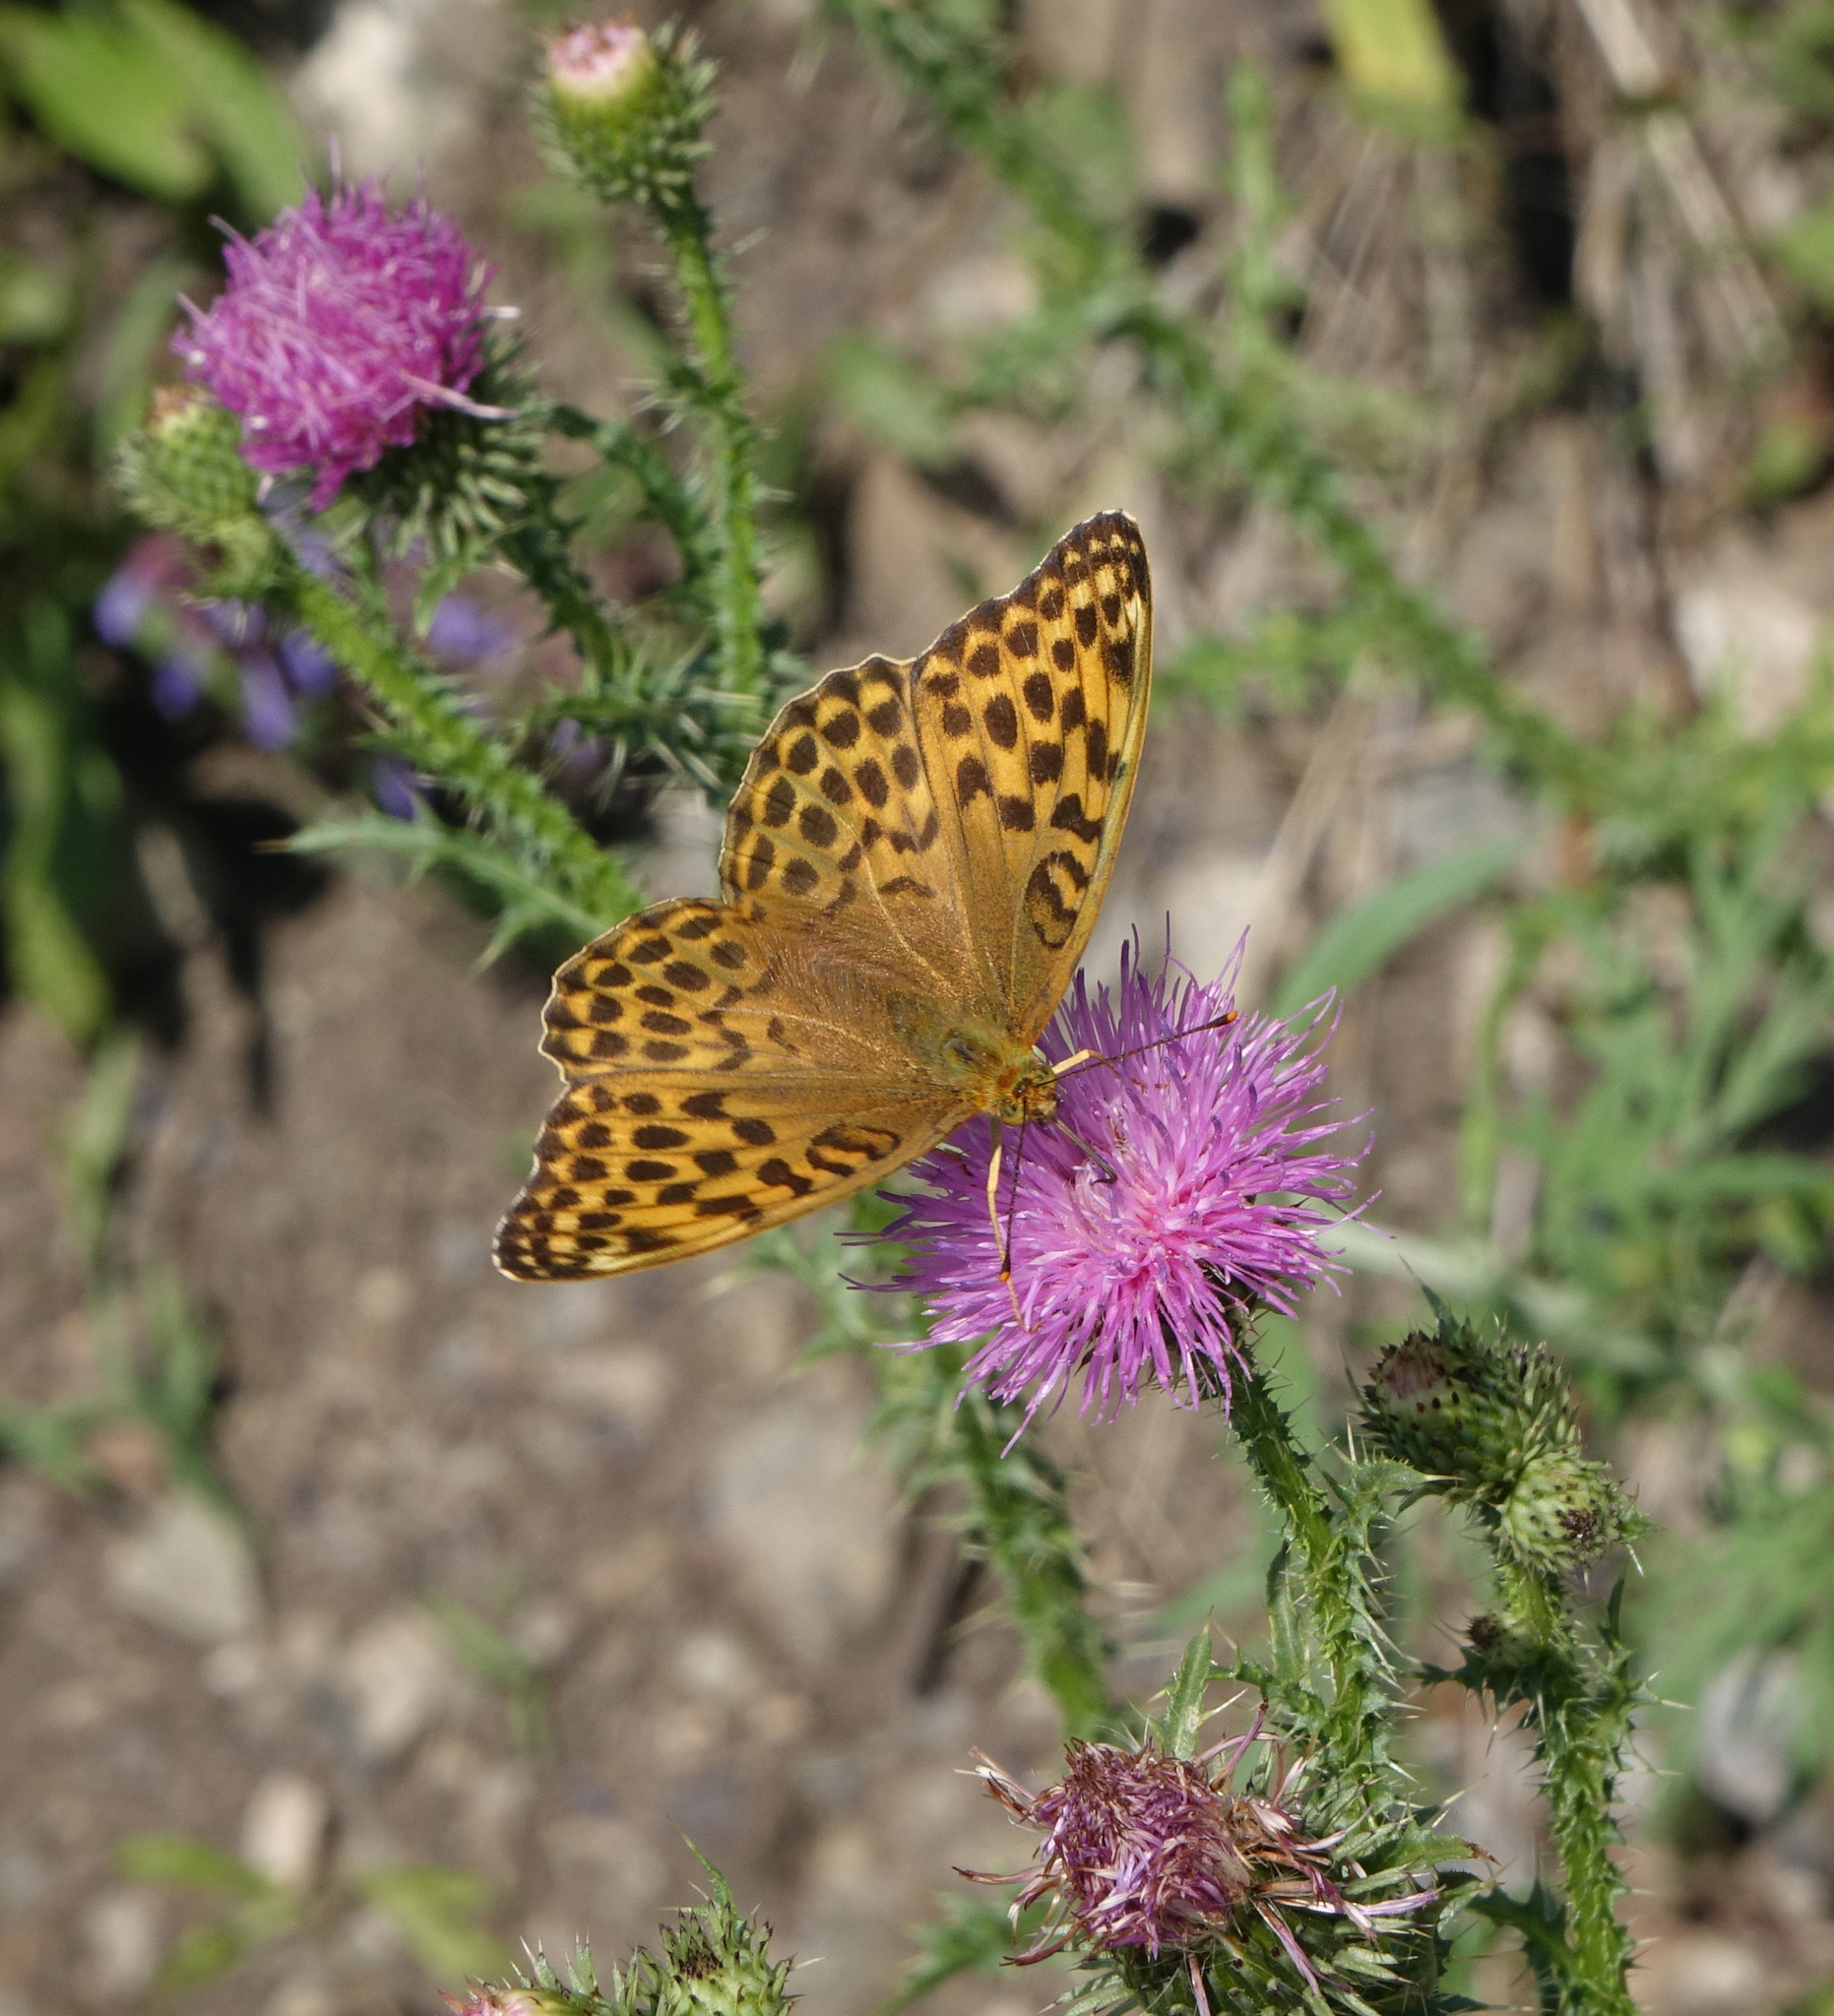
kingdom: Plantae
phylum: Tracheophyta
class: Magnoliopsida
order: Asterales
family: Asteraceae
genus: Carduus
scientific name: Carduus acanthoides
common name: Plumeless thistle
